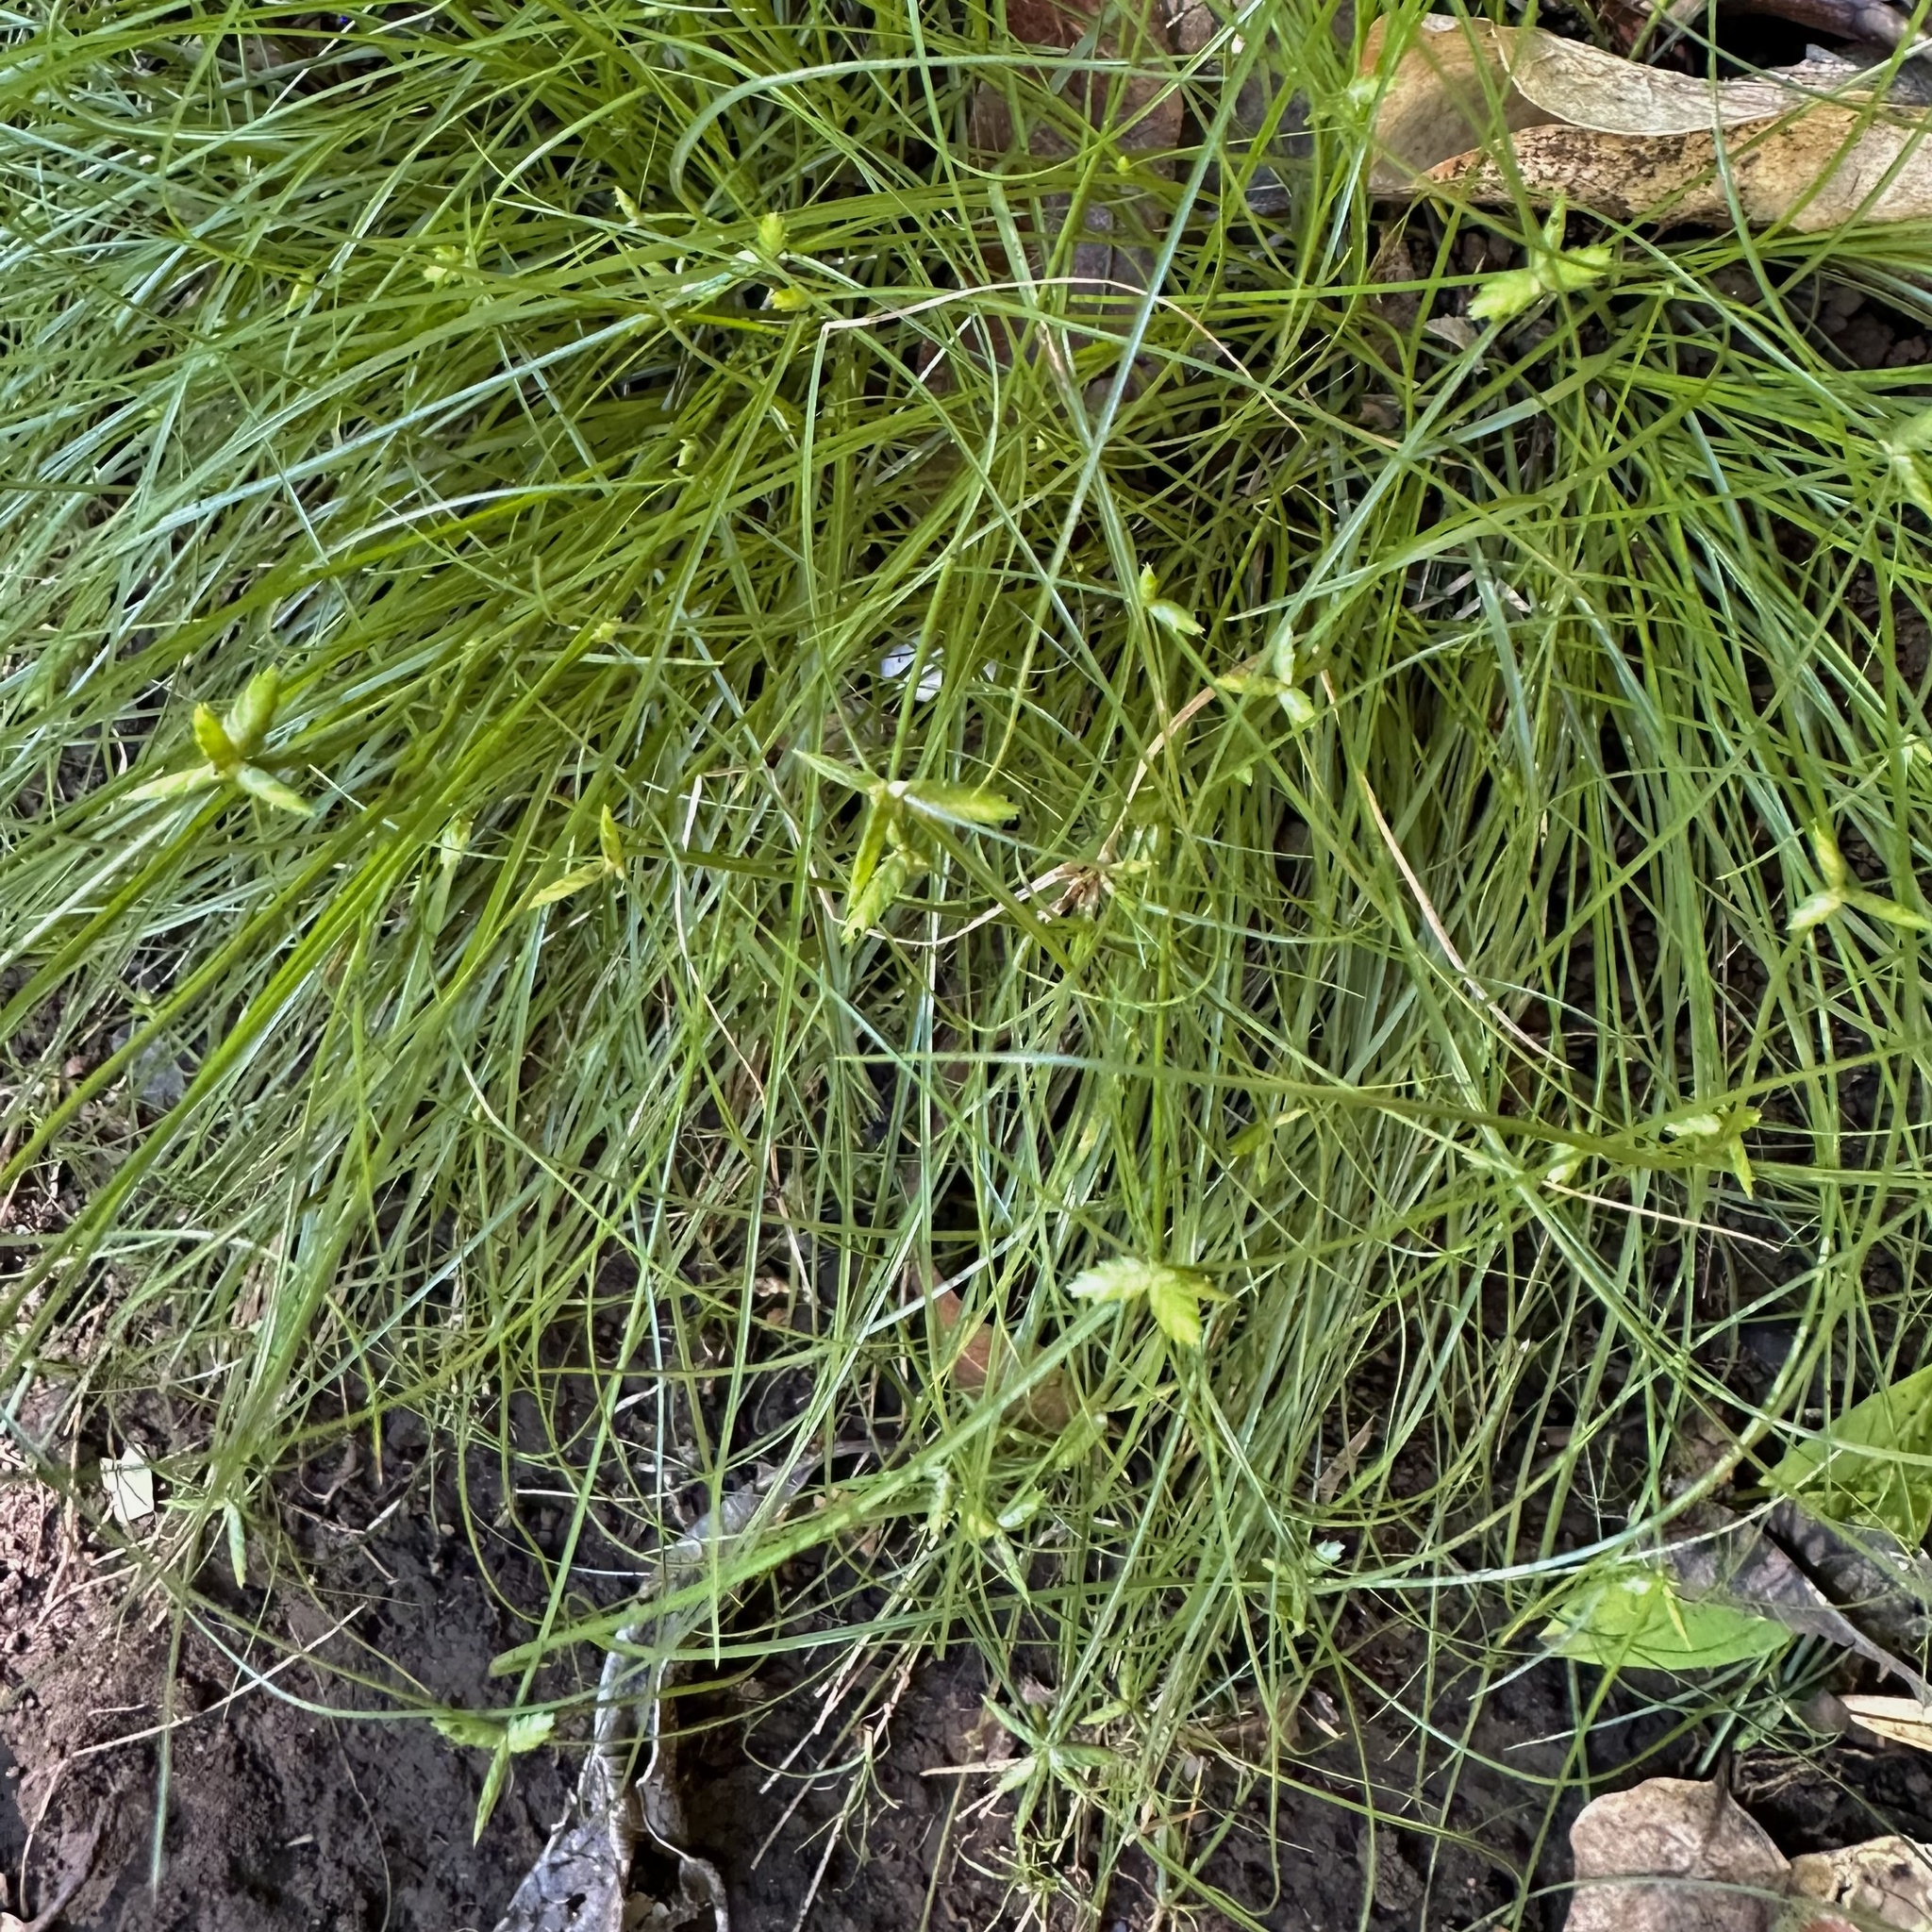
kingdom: Plantae
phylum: Tracheophyta
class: Liliopsida
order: Poales
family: Cyperaceae
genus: Cyperus
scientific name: Cyperus gracilis
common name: Slimjim flatsedge
